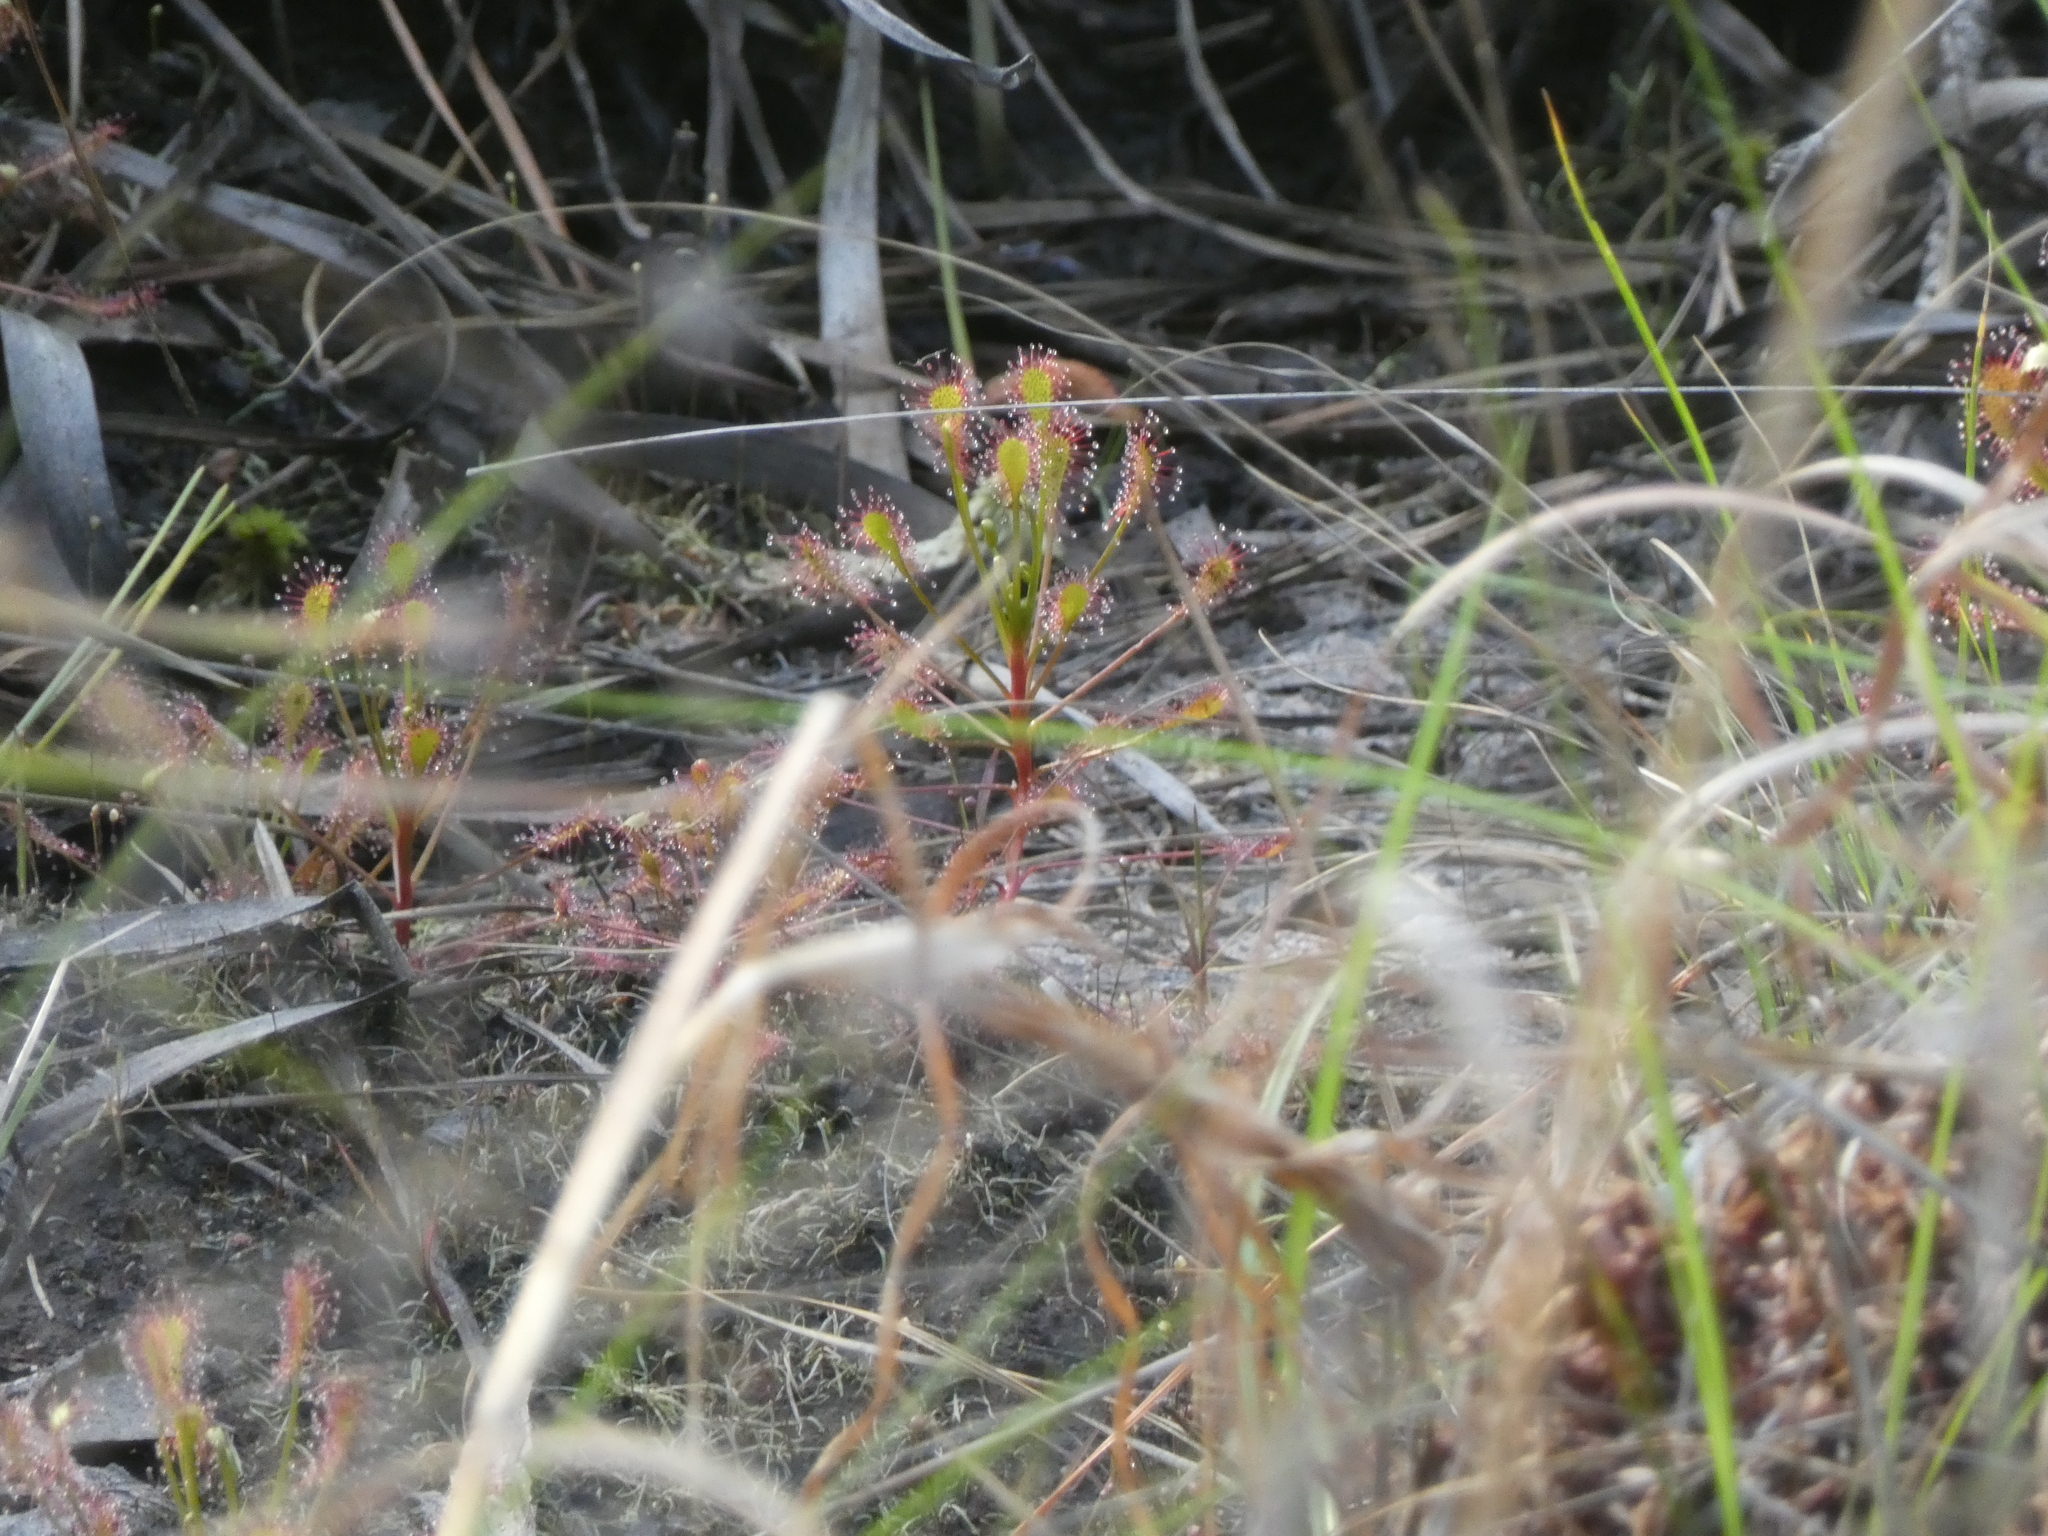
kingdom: Plantae
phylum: Tracheophyta
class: Magnoliopsida
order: Caryophyllales
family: Droseraceae
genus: Drosera
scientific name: Drosera intermedia
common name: Oblong-leaved sundew
